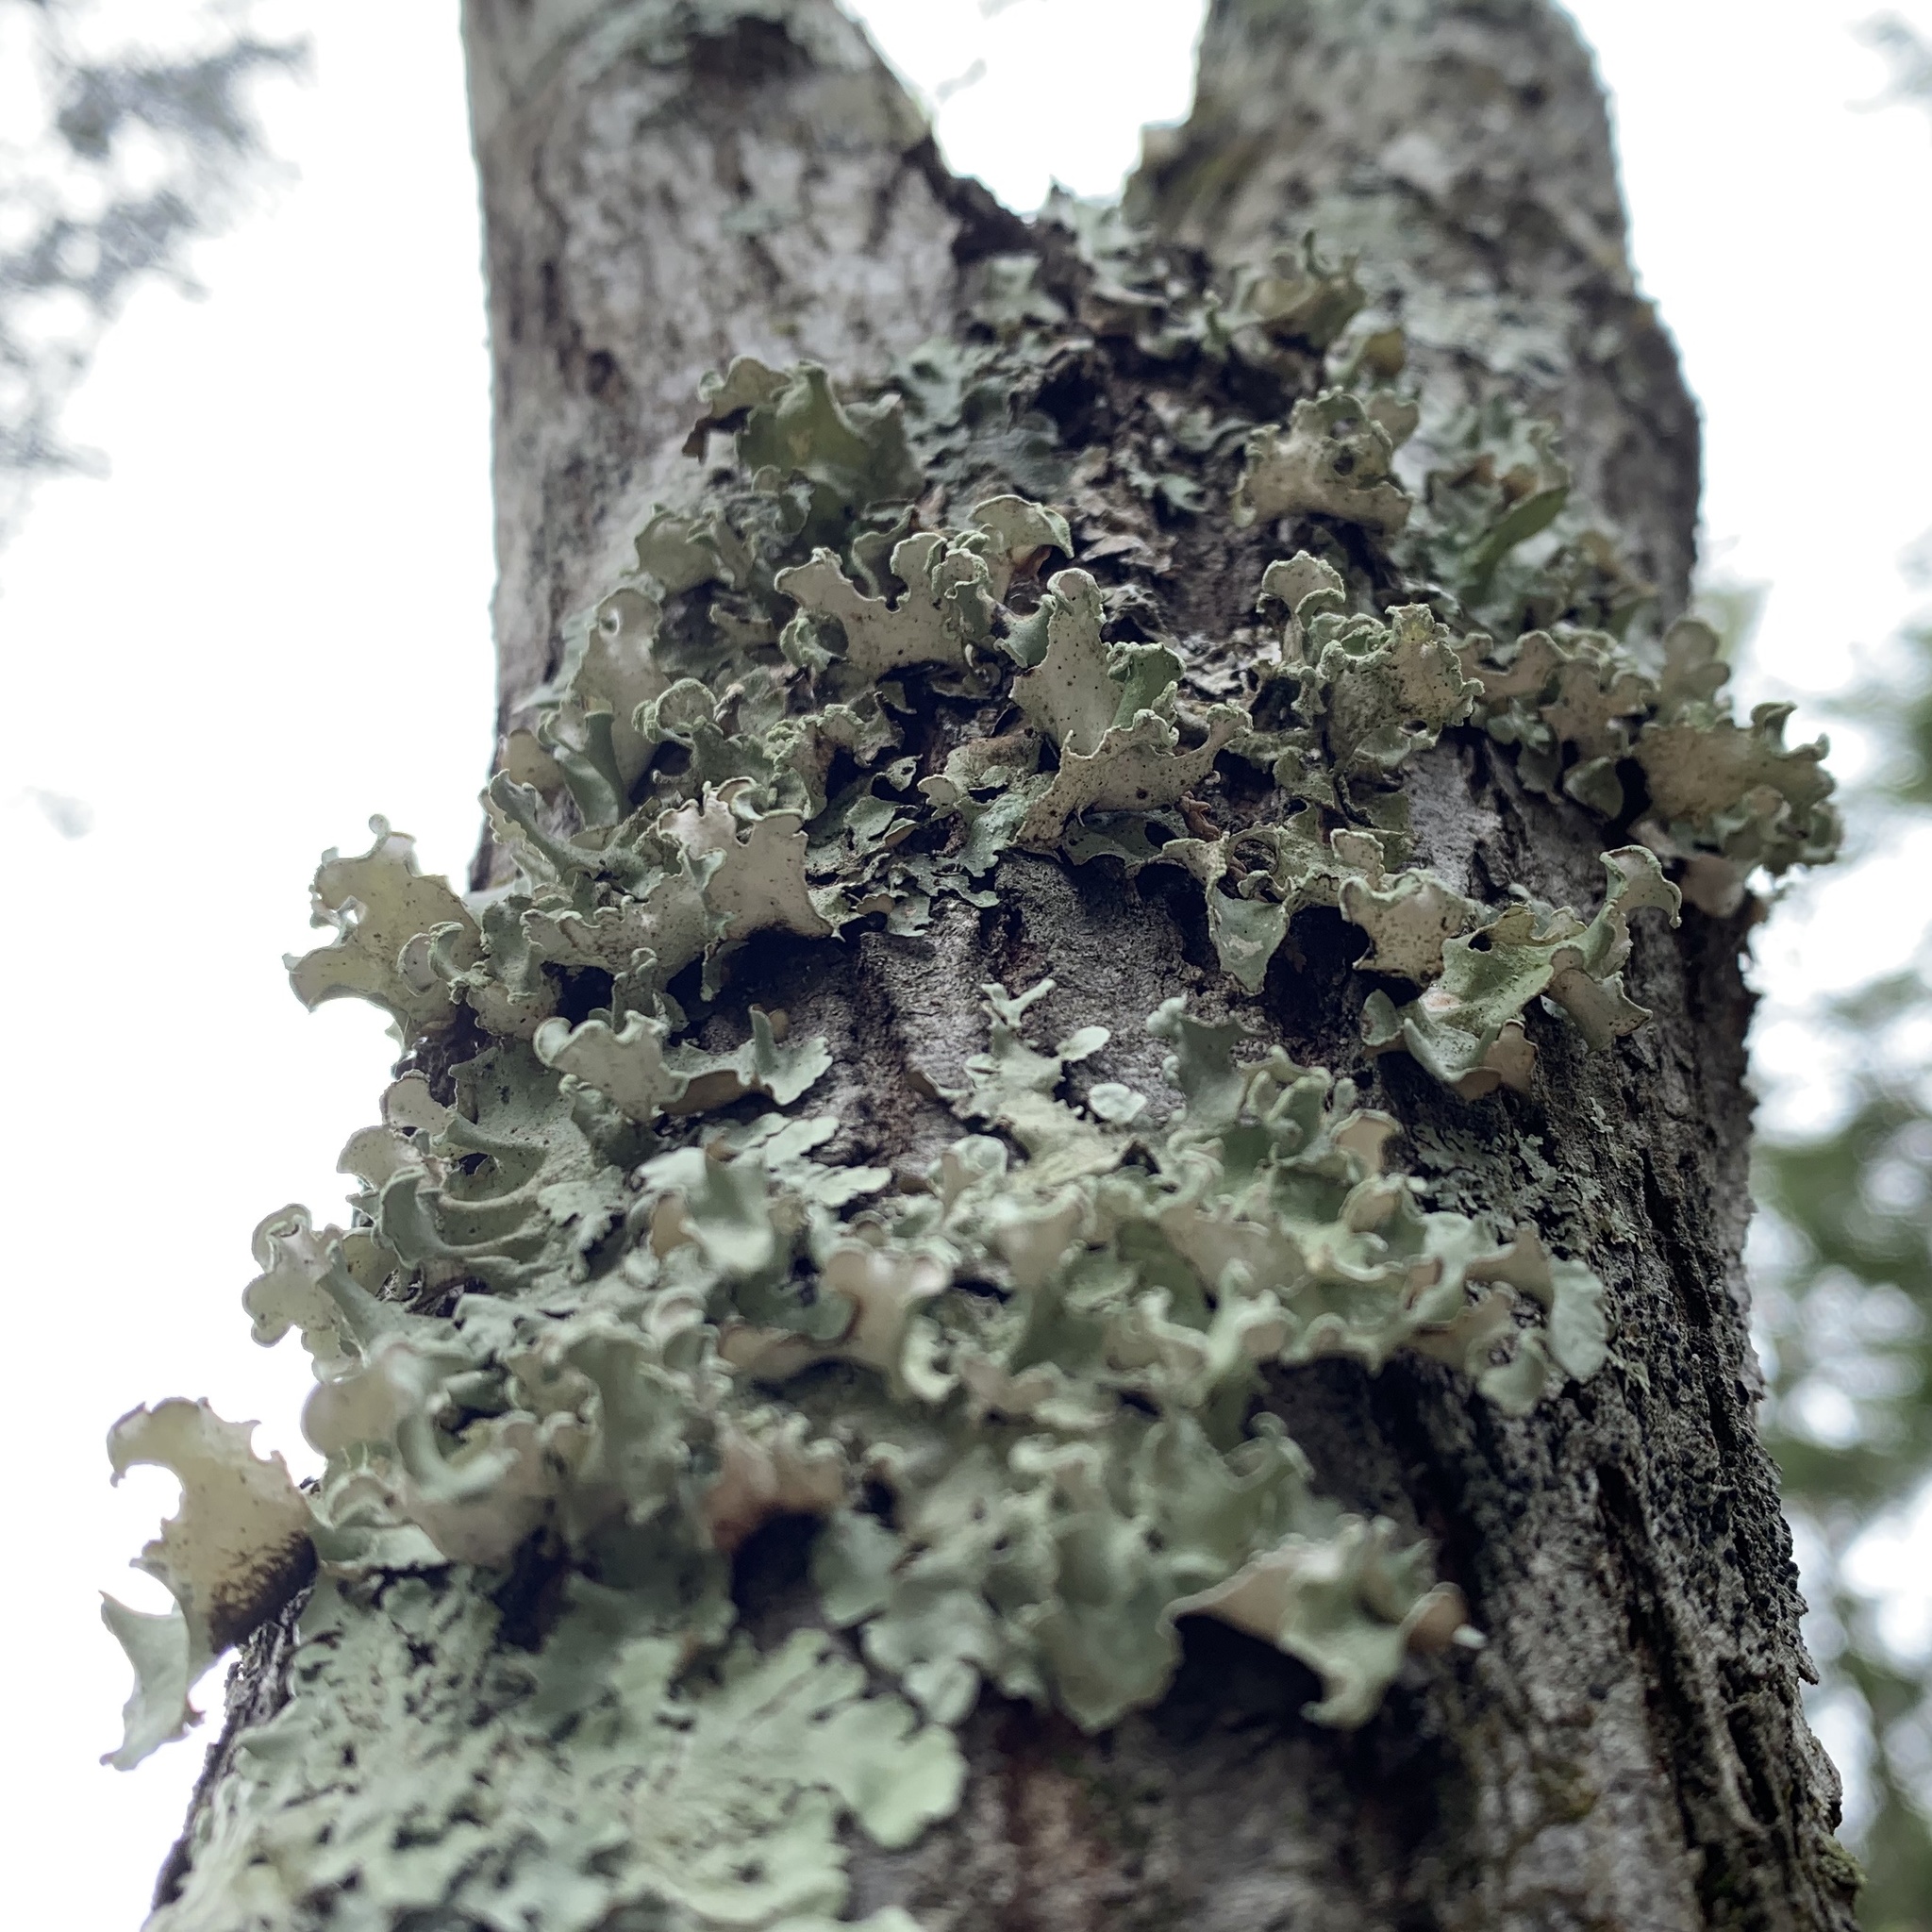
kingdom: Fungi
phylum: Ascomycota
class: Lecanoromycetes
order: Lecanorales
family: Parmeliaceae
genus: Parmotrema
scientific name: Parmotrema austrosinense
